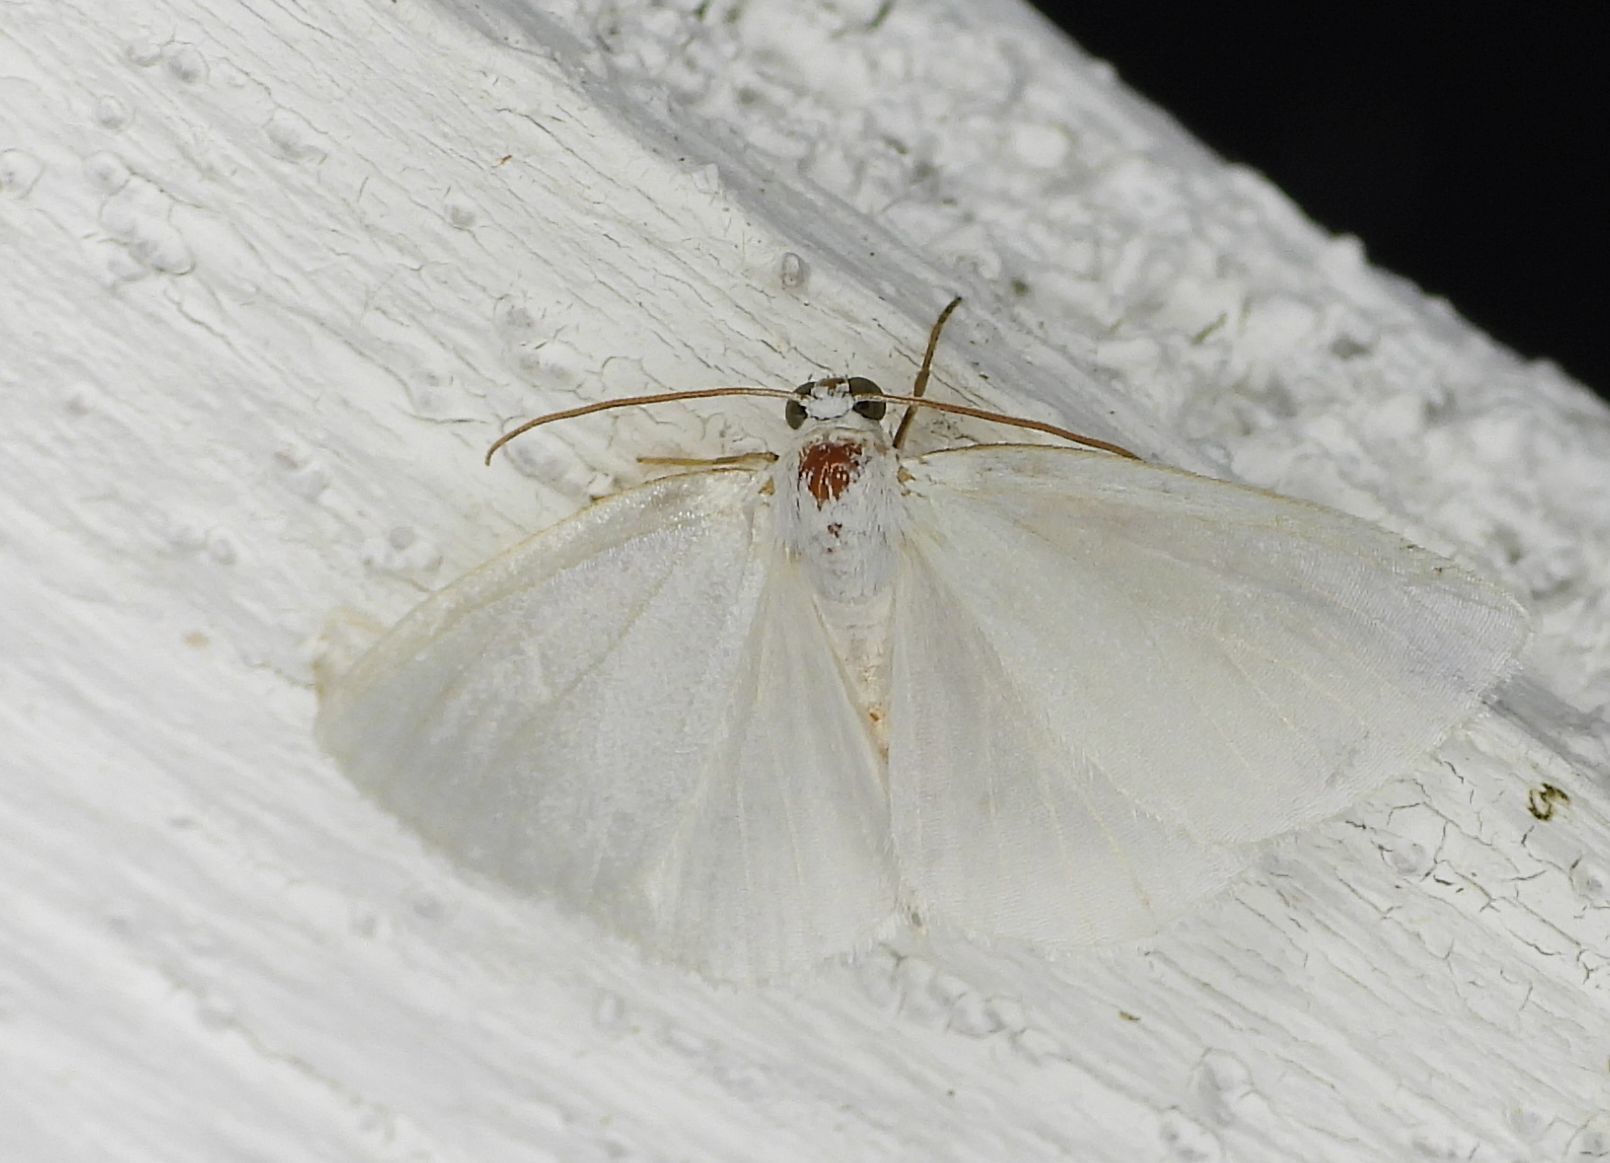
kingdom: Animalia
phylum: Arthropoda
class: Insecta
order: Lepidoptera
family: Geometridae
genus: Lomographa
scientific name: Lomographa vestaliata
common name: White spring moth
